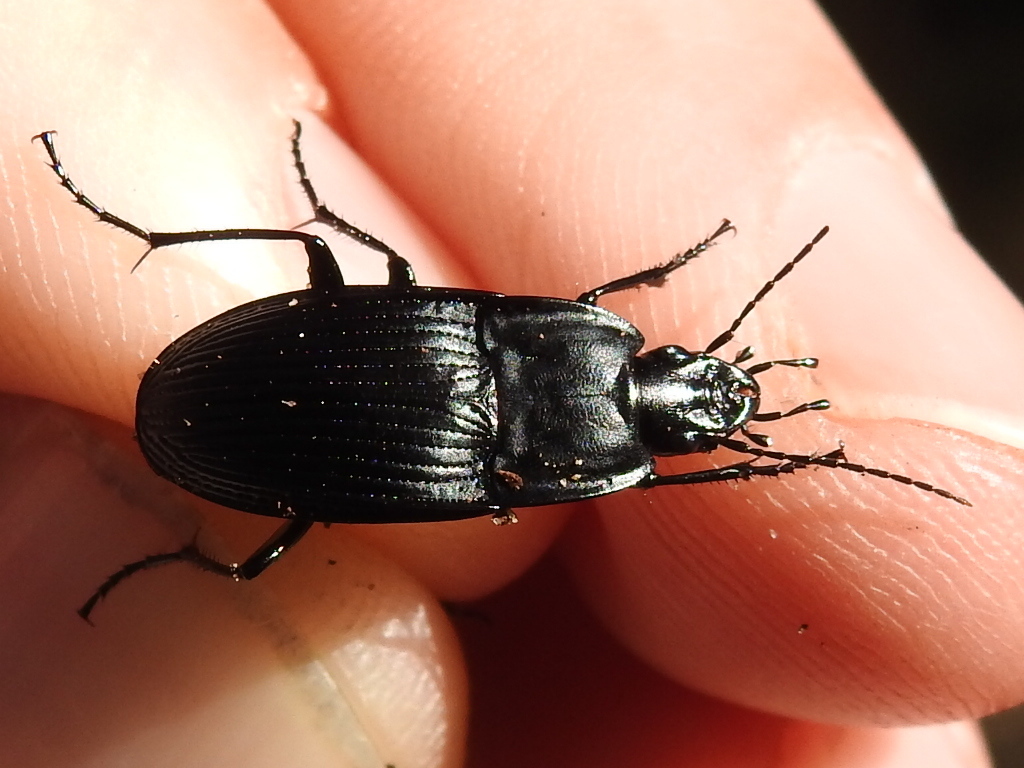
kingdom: Animalia
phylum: Arthropoda
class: Insecta
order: Coleoptera
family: Carabidae
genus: Dicaelus
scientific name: Dicaelus crenatus
